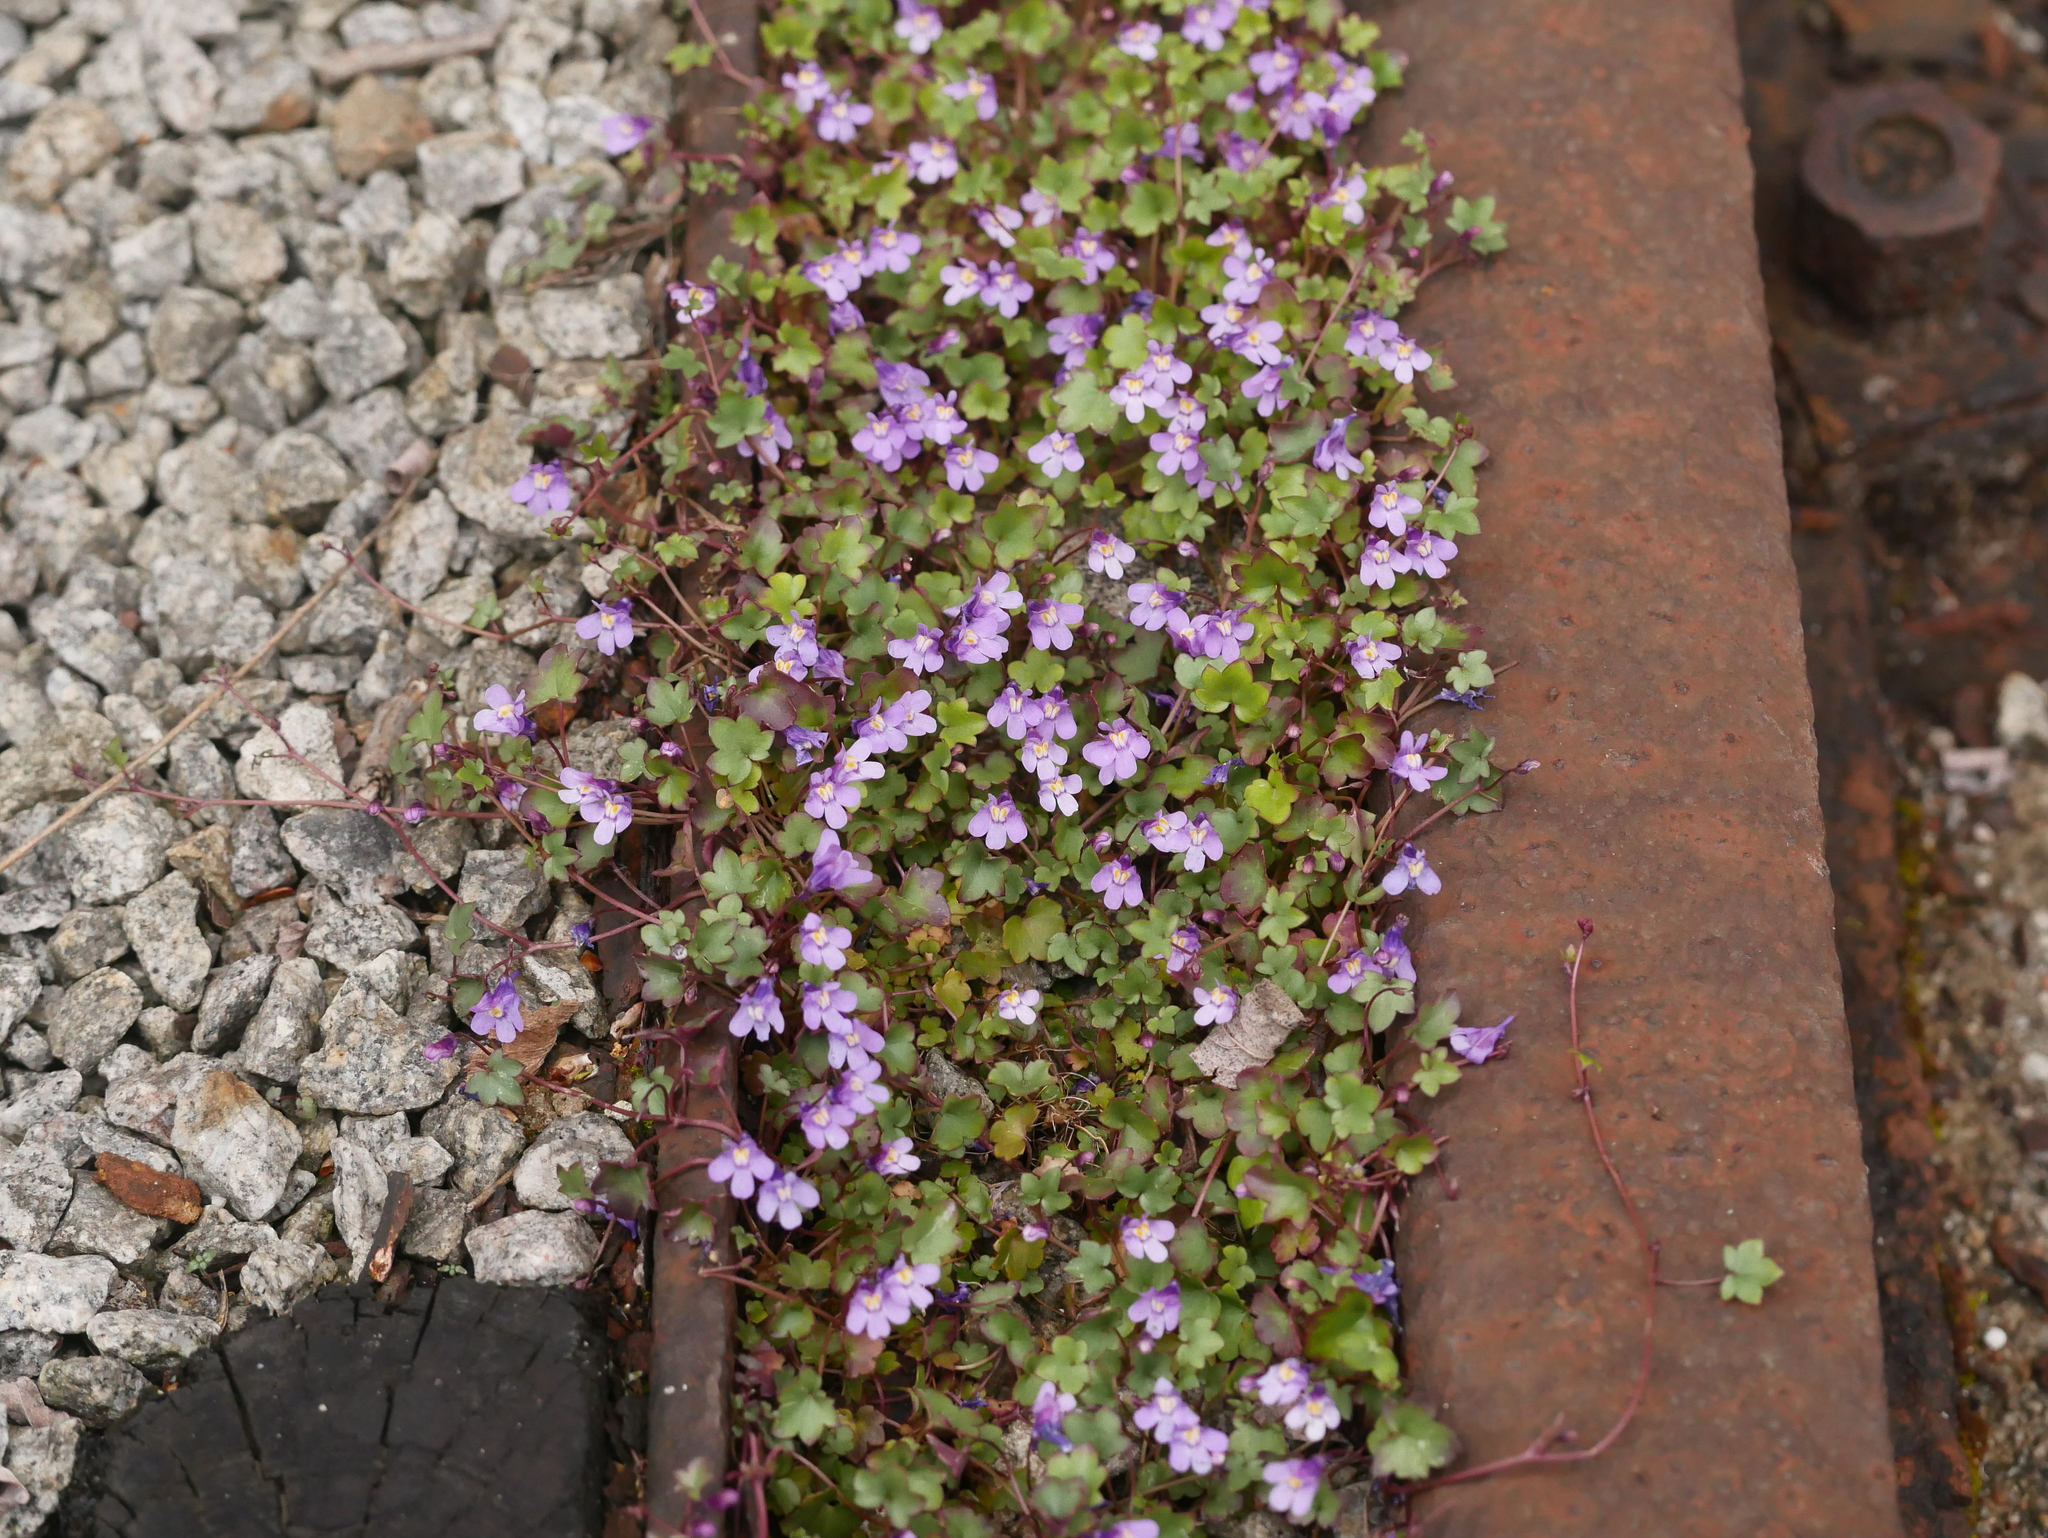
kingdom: Plantae
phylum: Tracheophyta
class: Magnoliopsida
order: Lamiales
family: Plantaginaceae
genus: Cymbalaria
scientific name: Cymbalaria muralis
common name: Ivy-leaved toadflax
